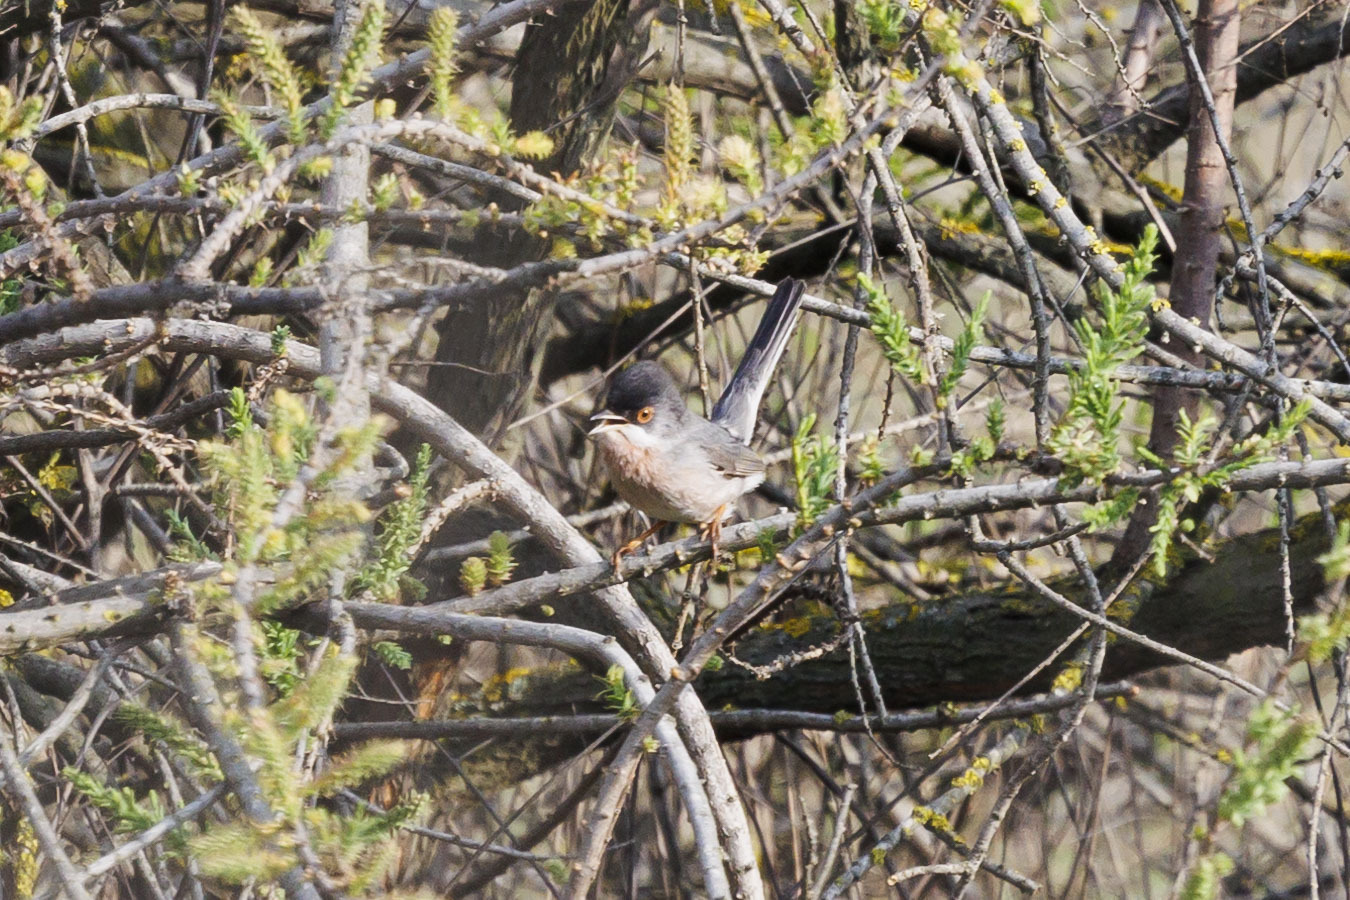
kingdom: Animalia
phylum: Chordata
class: Aves
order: Passeriformes
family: Sylviidae
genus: Sylvia
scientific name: Sylvia mystacea
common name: Menetries's warbler
